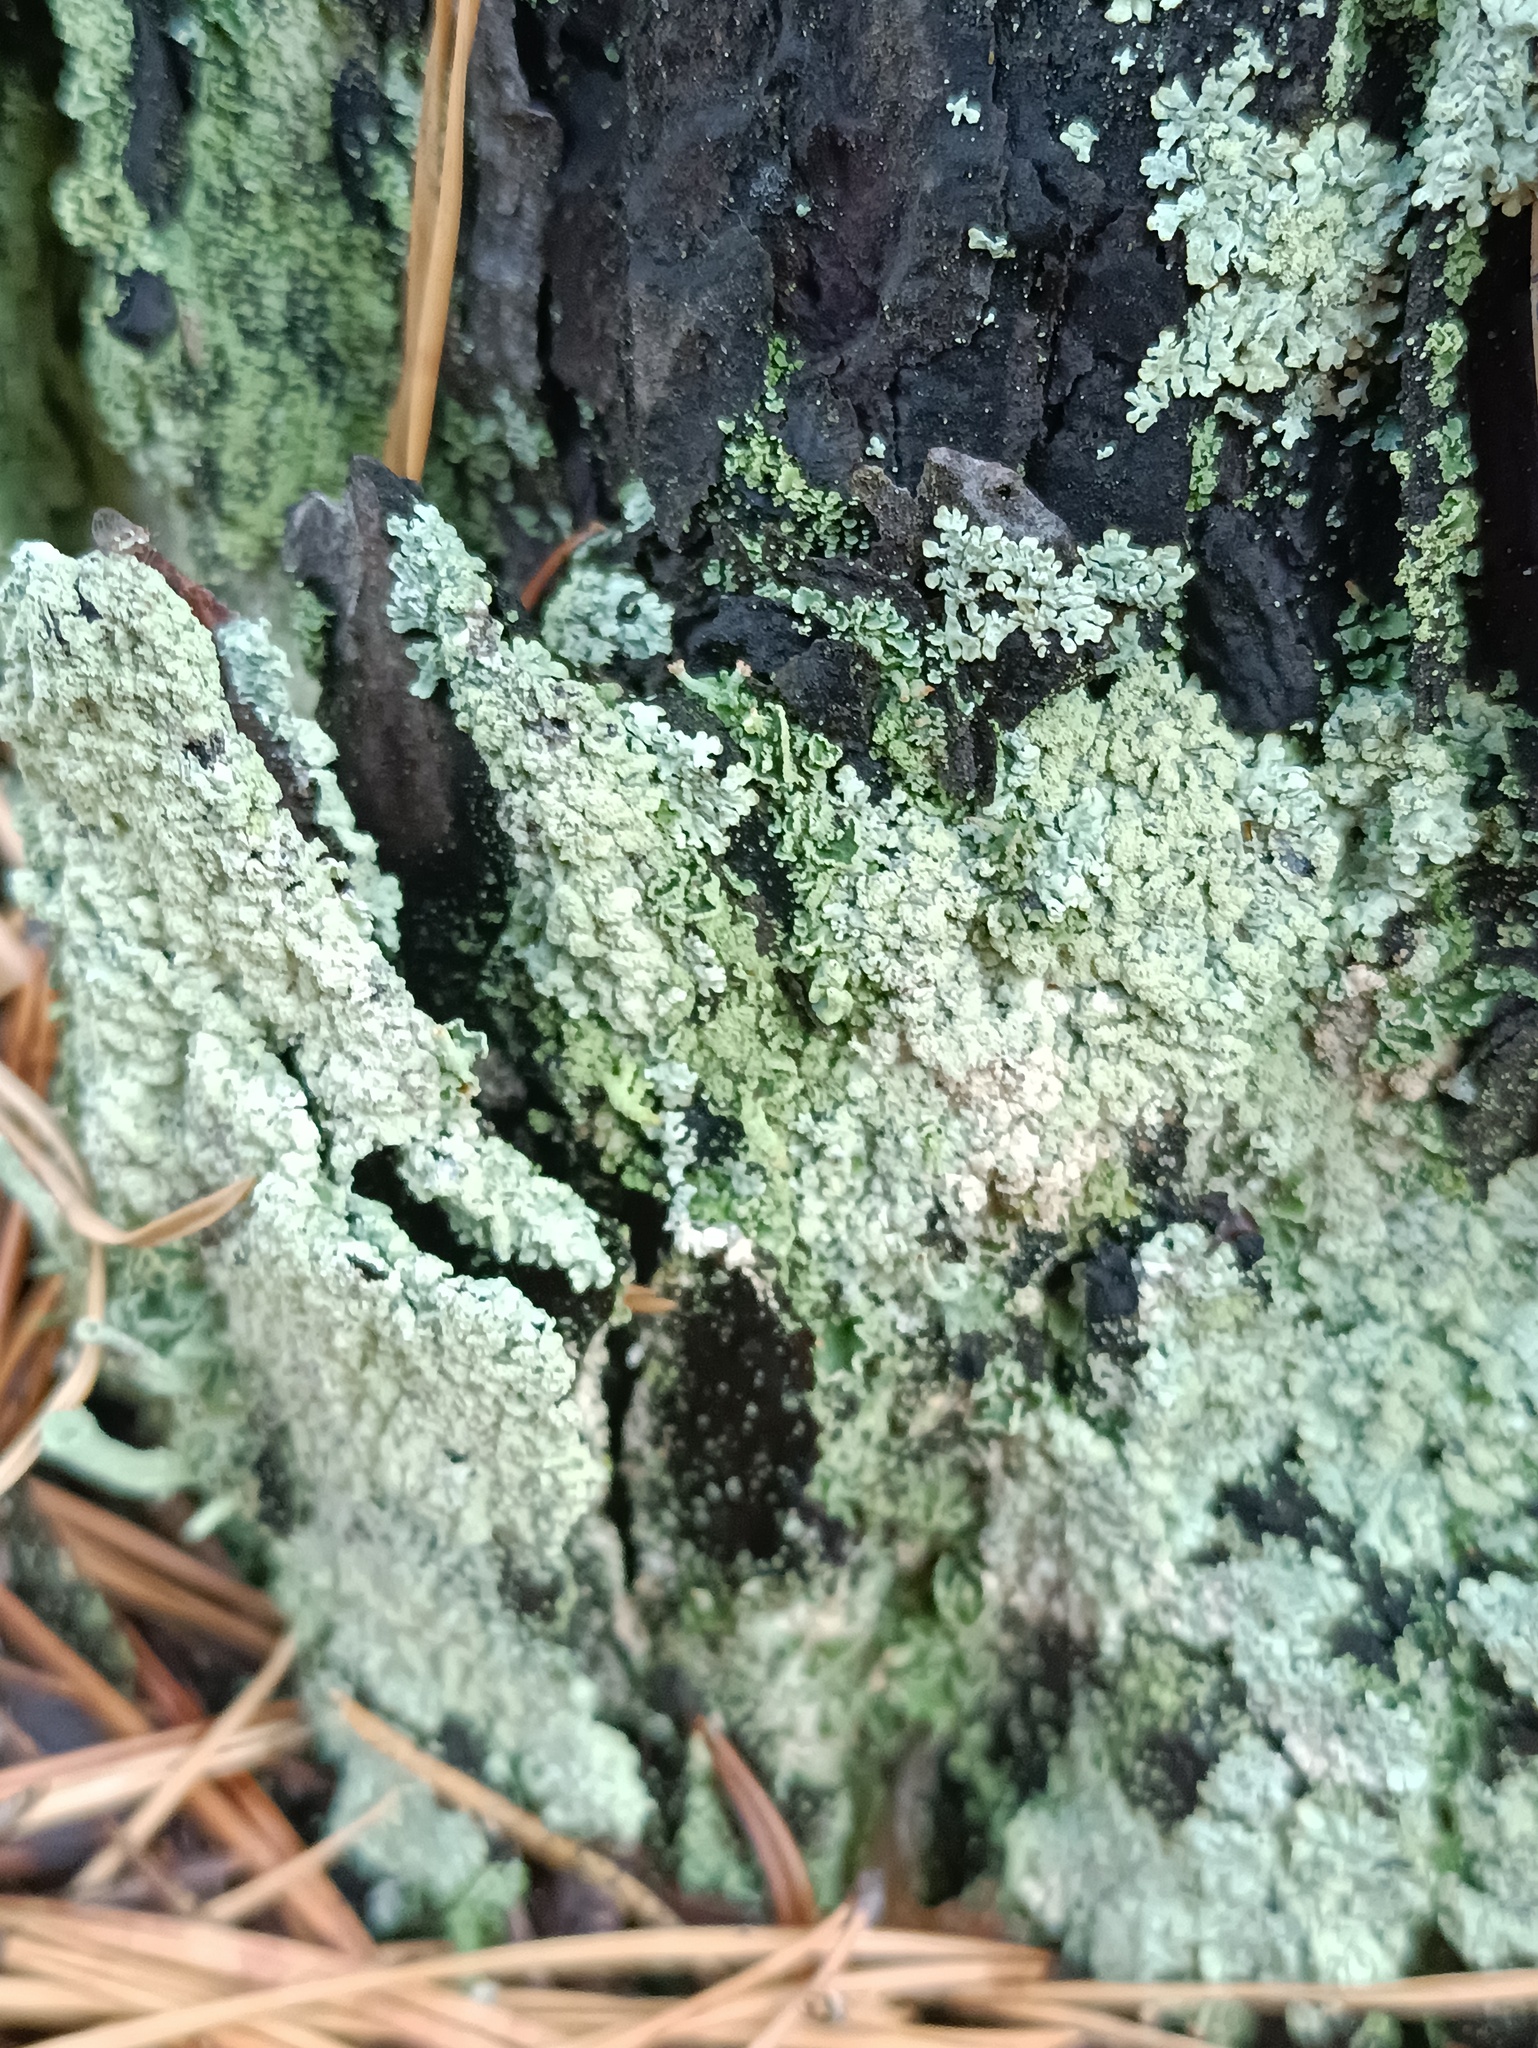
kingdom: Fungi
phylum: Ascomycota
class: Lecanoromycetes
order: Lecanorales
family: Parmeliaceae
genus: Parmeliopsis
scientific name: Parmeliopsis ambigua
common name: Green starburst lichen
